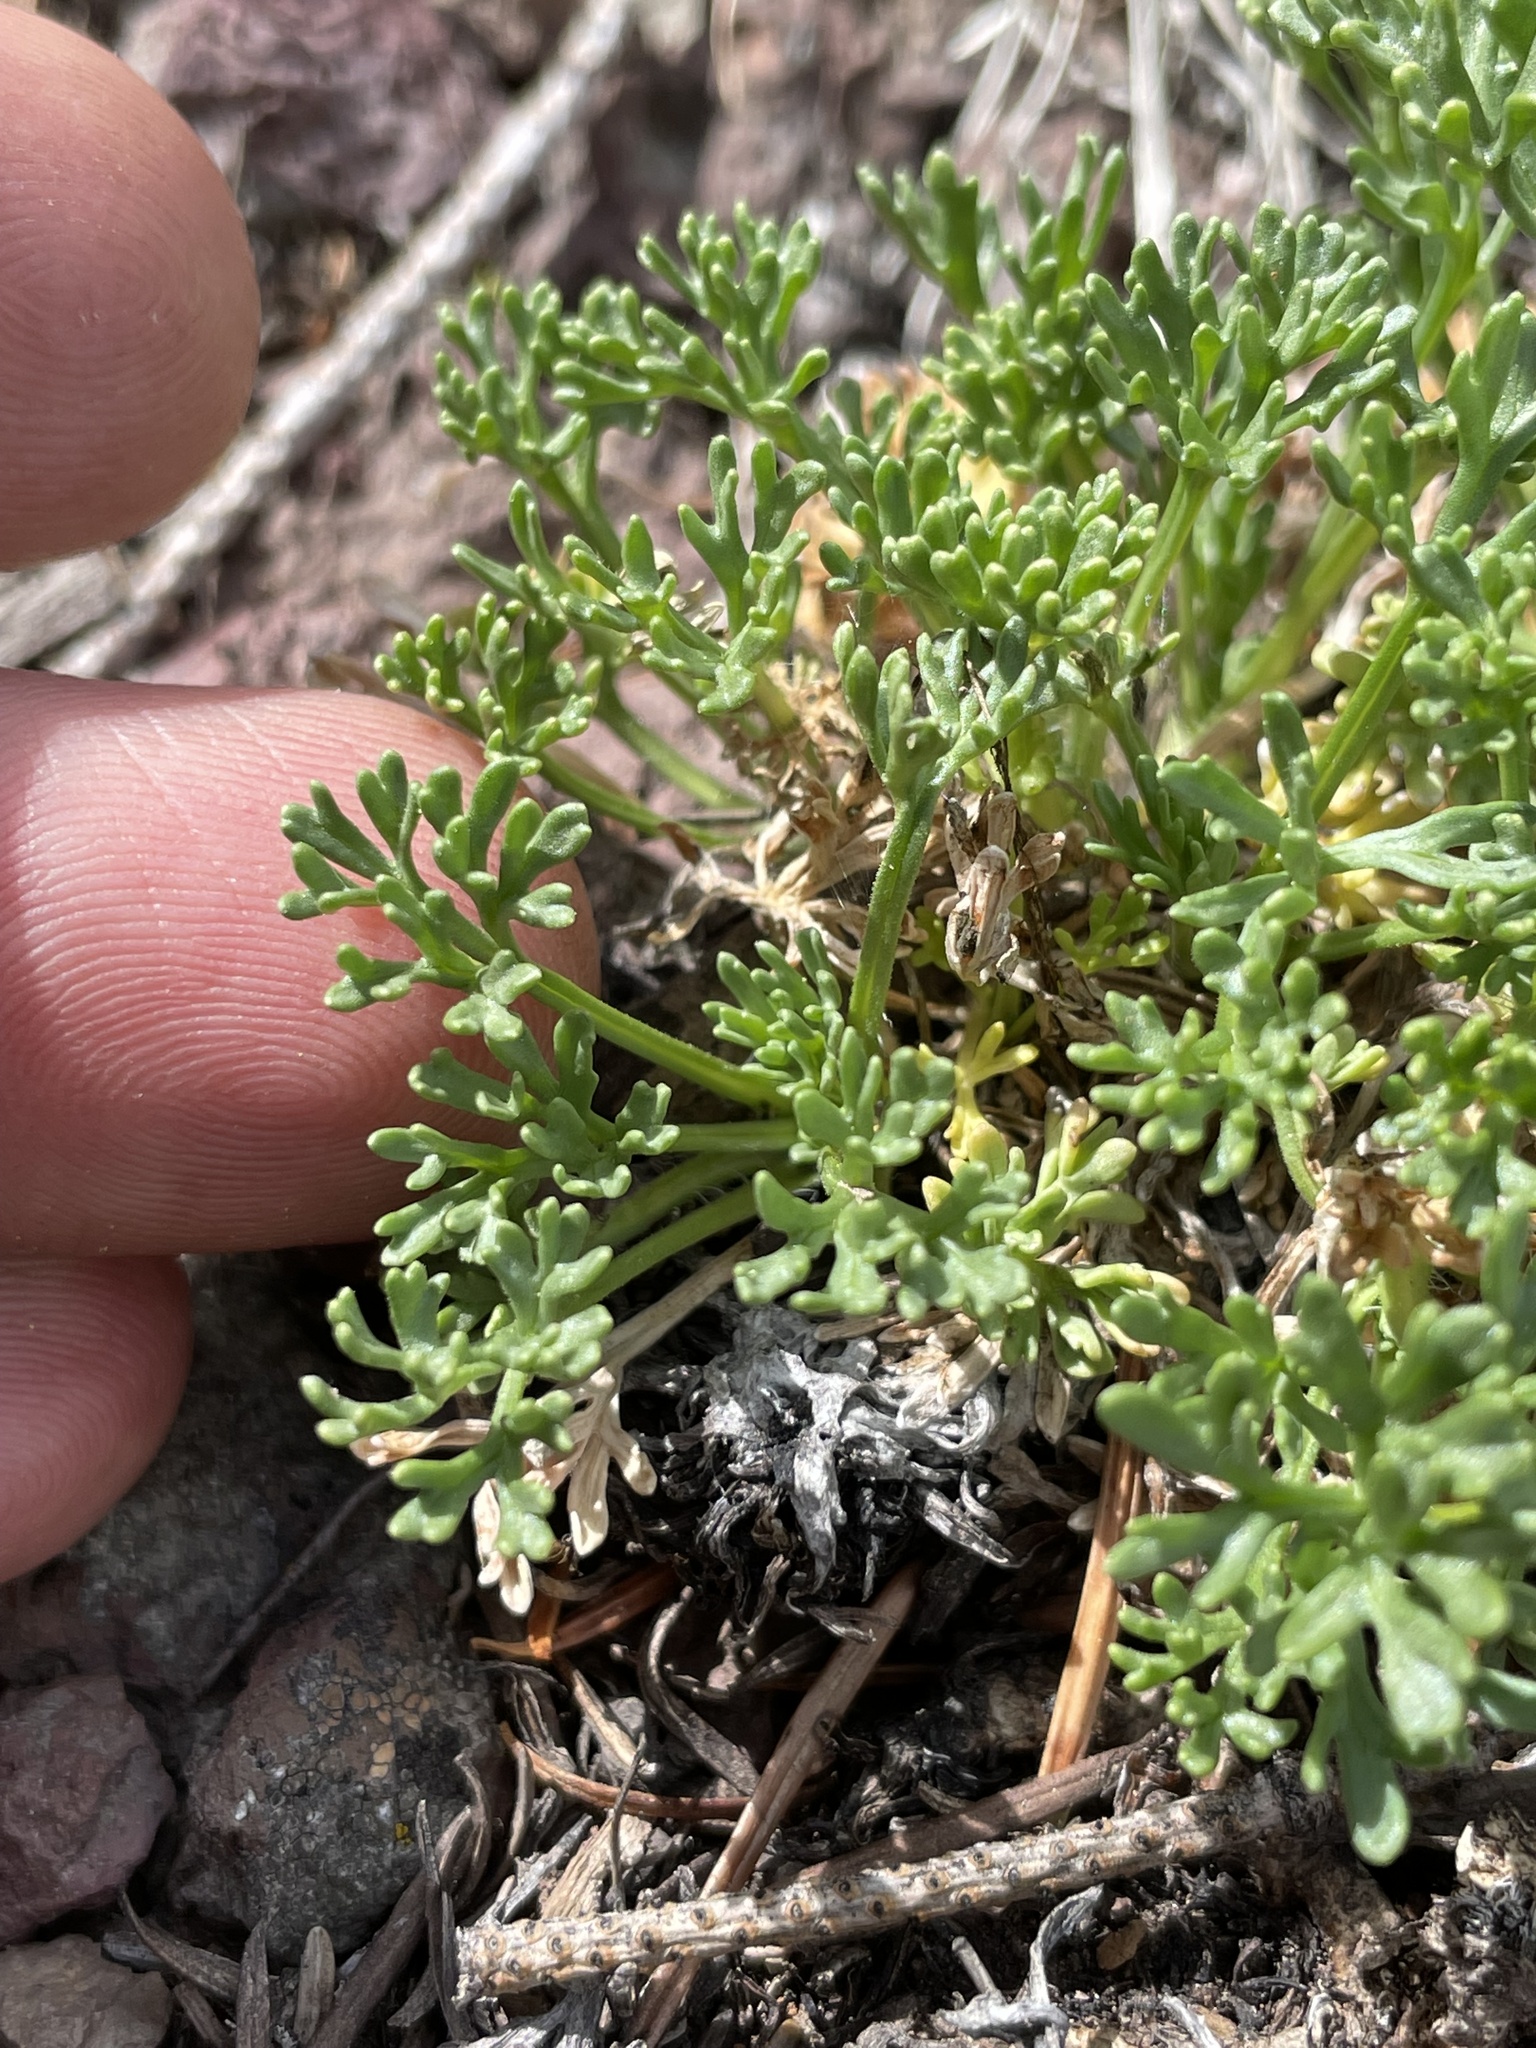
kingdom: Plantae
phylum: Tracheophyta
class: Magnoliopsida
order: Asterales
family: Asteraceae
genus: Erigeron
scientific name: Erigeron compositus
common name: Dwarf mountain fleabane
